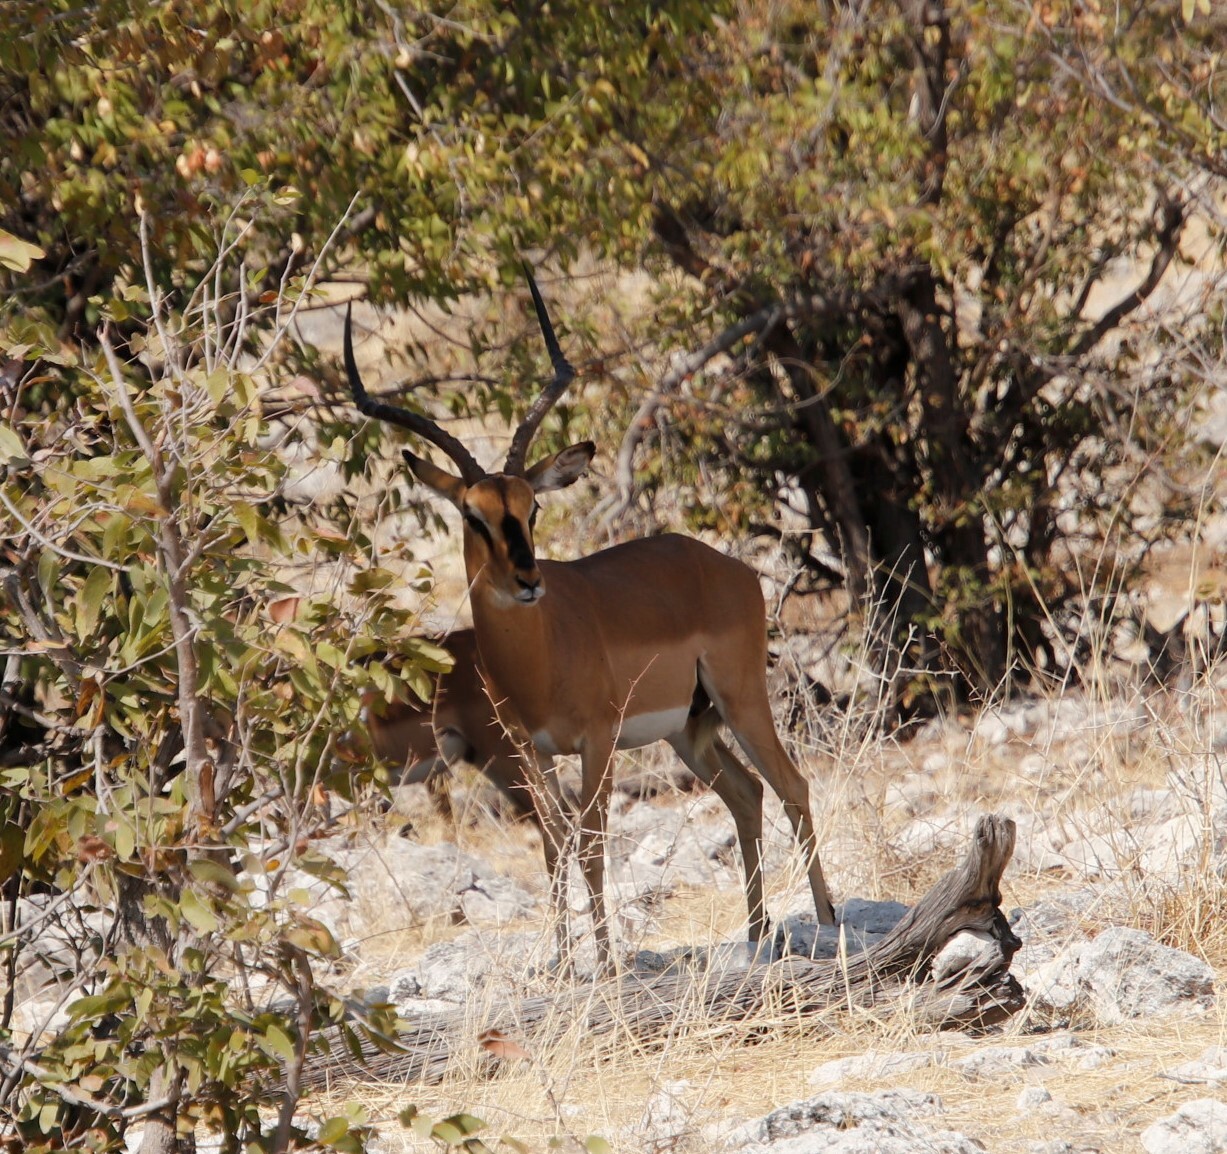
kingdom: Animalia
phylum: Chordata
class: Mammalia
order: Artiodactyla
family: Bovidae
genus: Aepyceros
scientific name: Aepyceros melampus
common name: Impala
